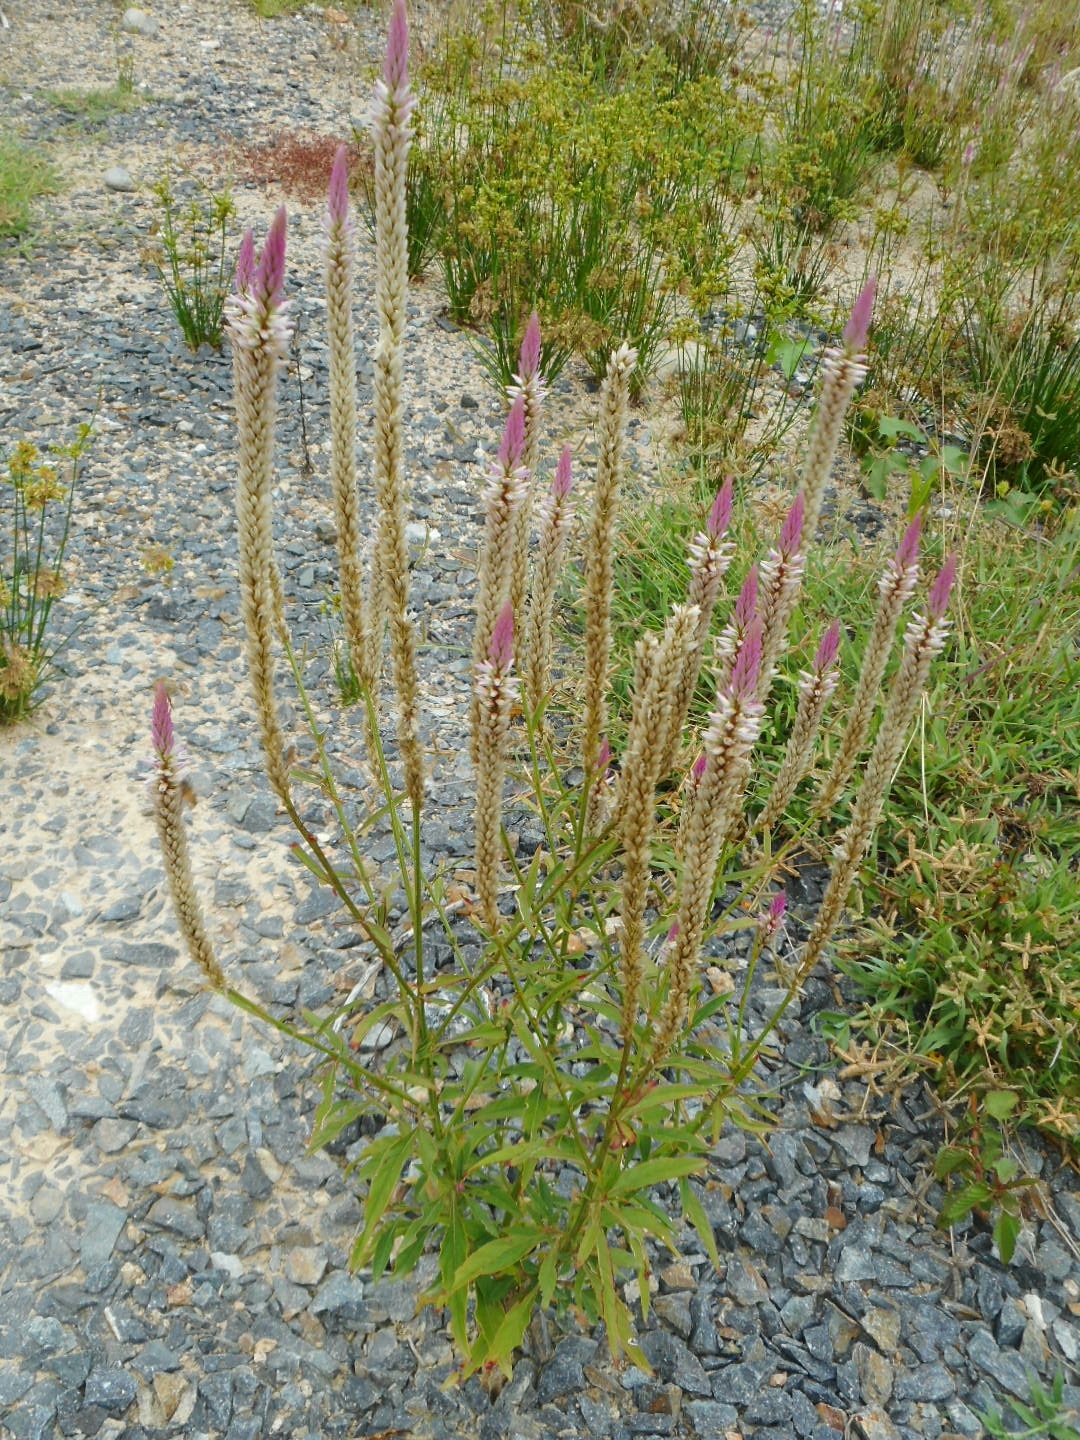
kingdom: Plantae
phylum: Tracheophyta
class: Magnoliopsida
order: Caryophyllales
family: Amaranthaceae
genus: Celosia
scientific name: Celosia argentea
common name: Feather cockscomb
